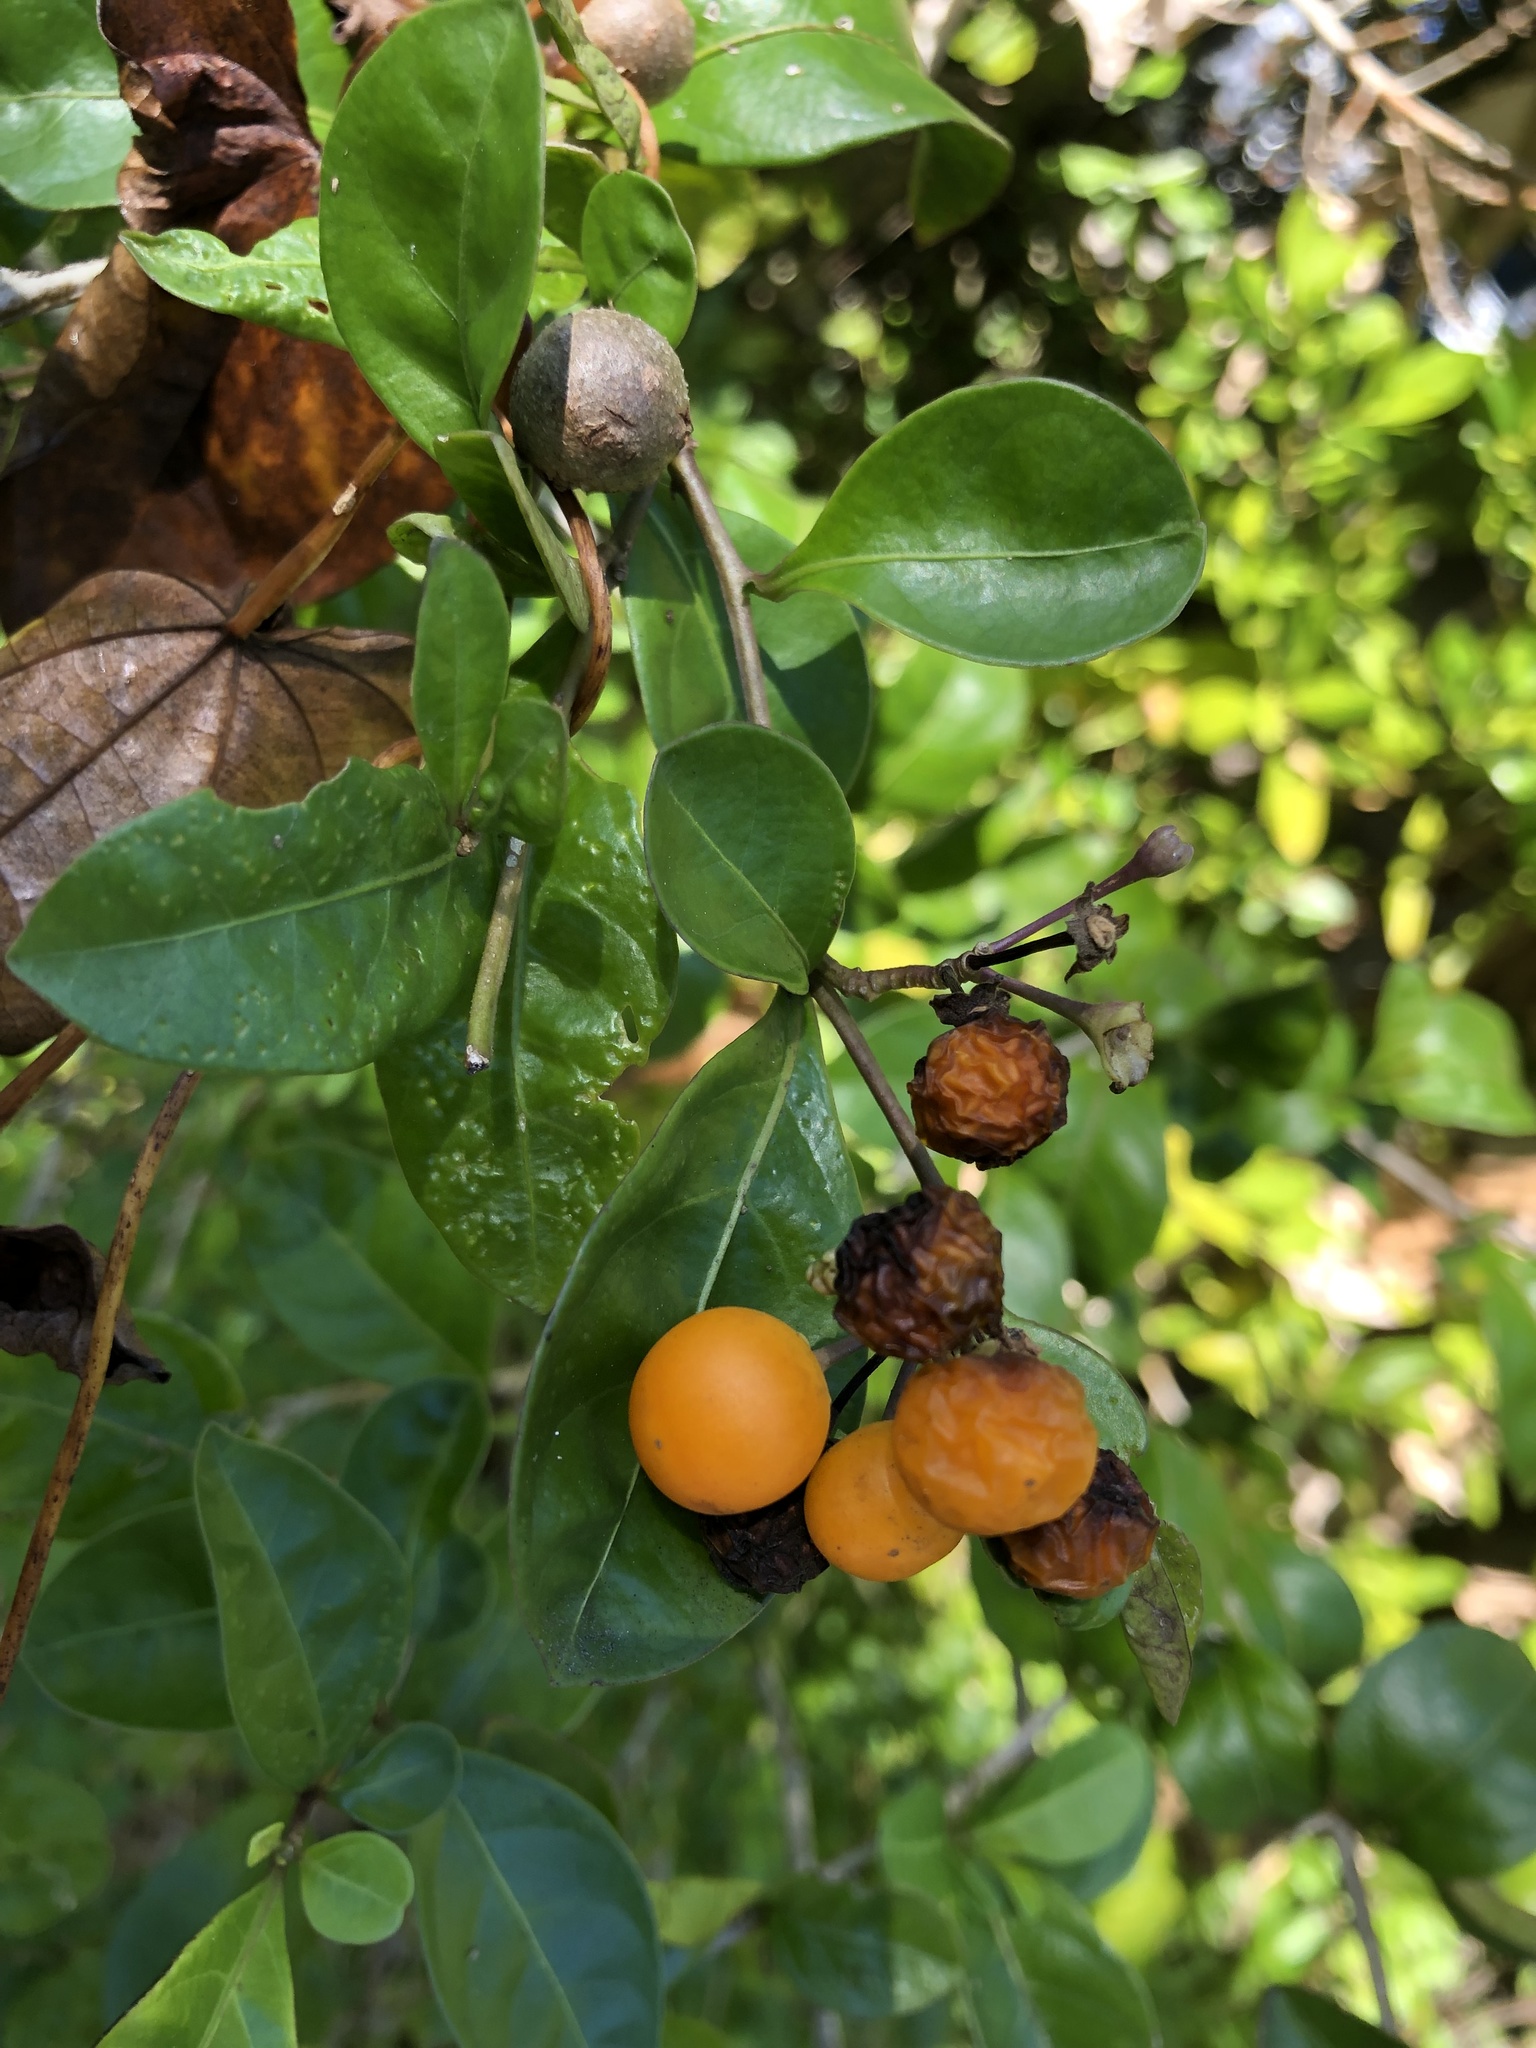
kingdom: Plantae
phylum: Tracheophyta
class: Magnoliopsida
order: Solanales
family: Solanaceae
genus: Solanum
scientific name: Solanum diphyllum
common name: Twoleaf nightshade
